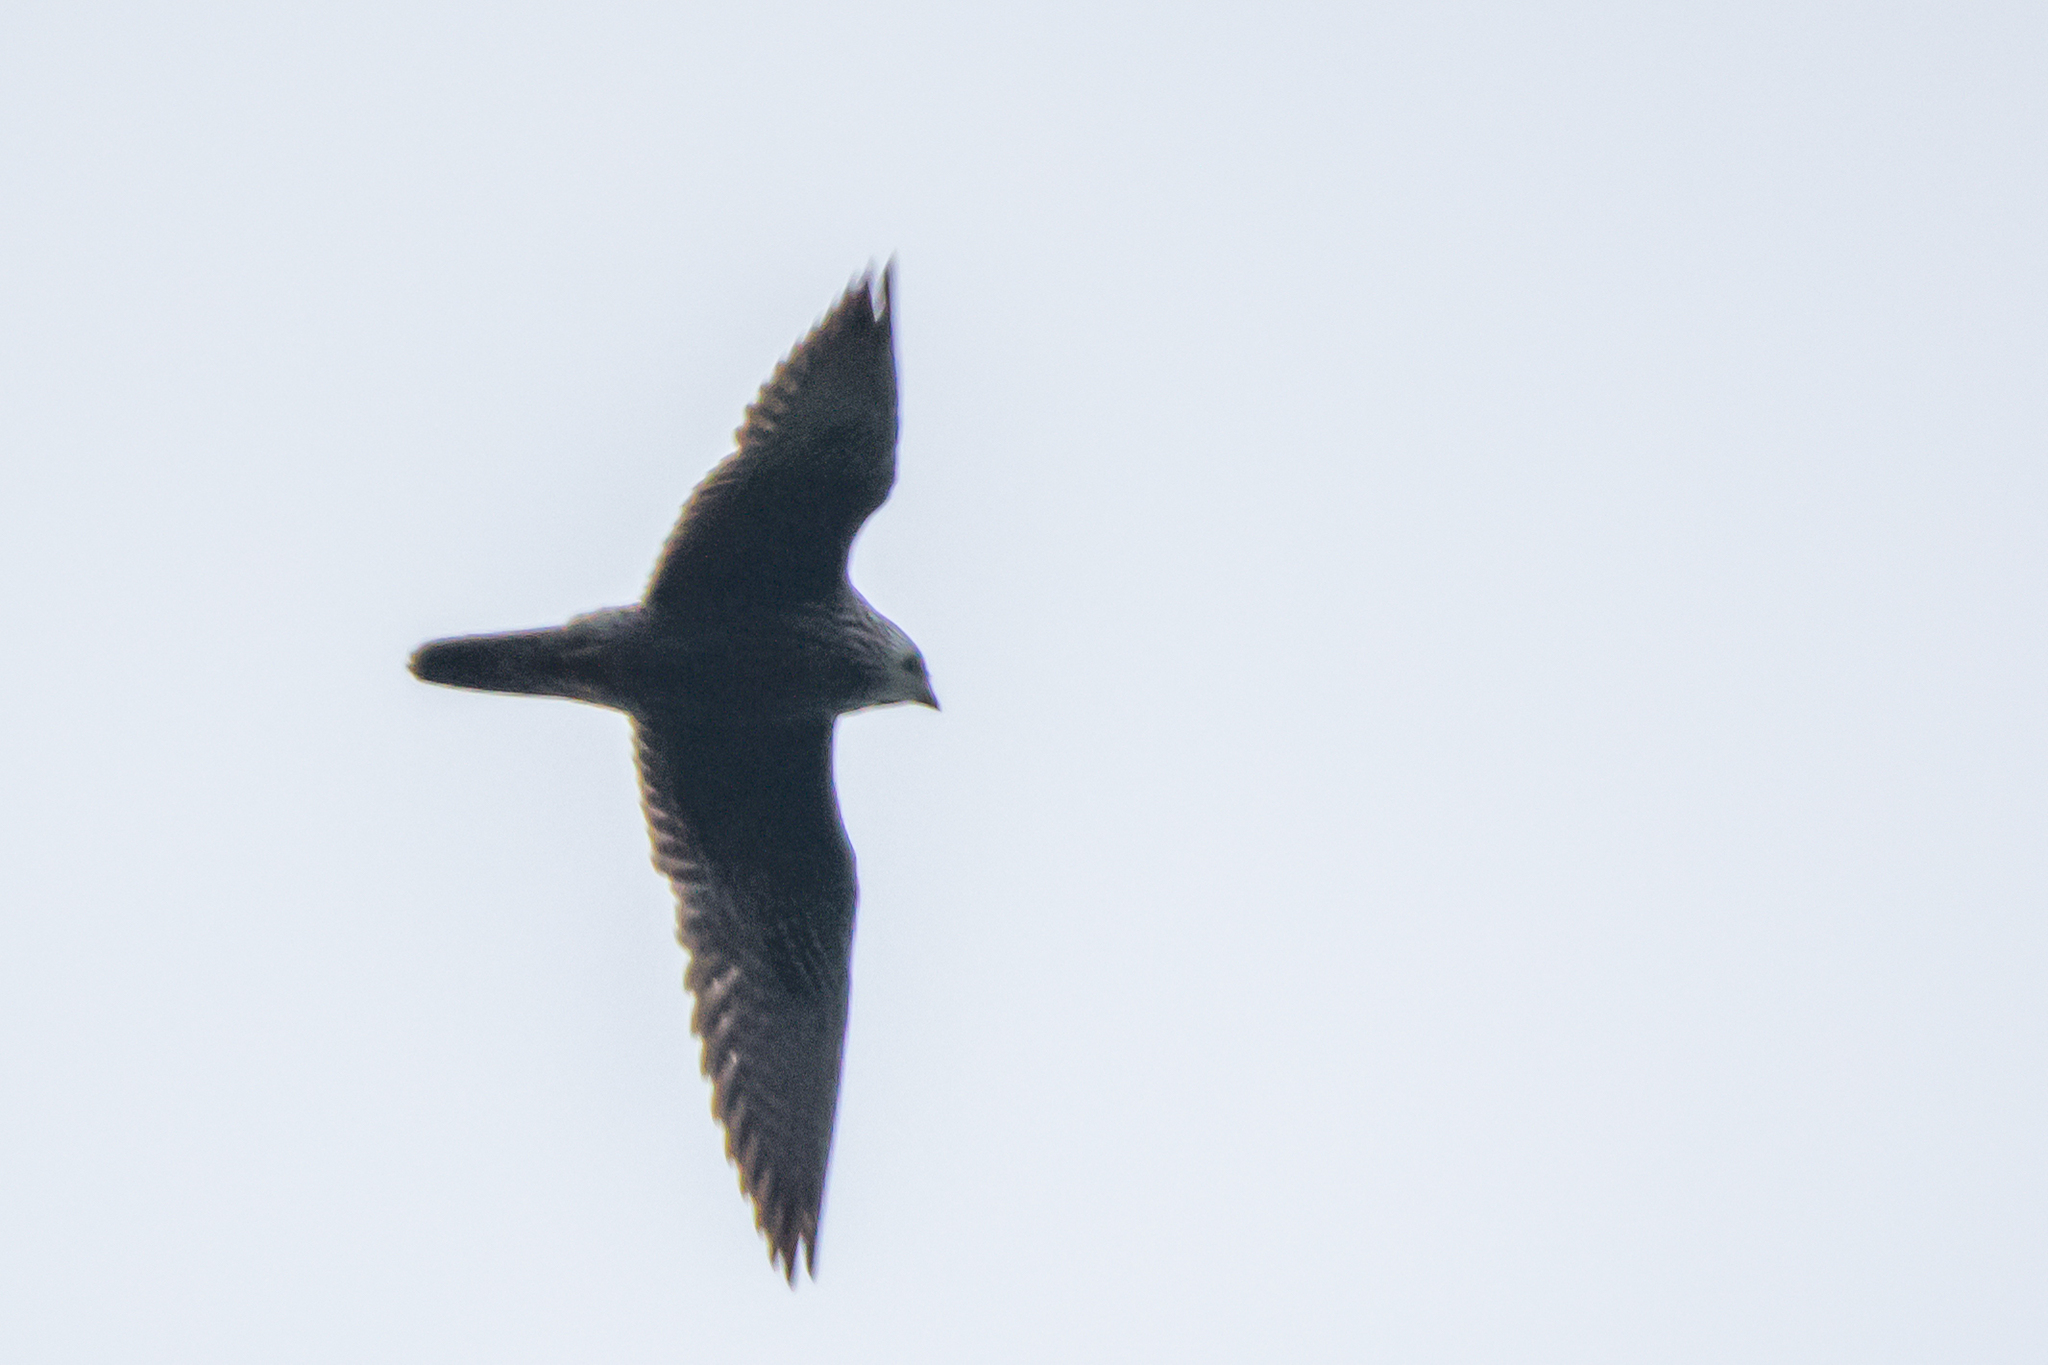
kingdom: Animalia
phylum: Chordata
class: Aves
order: Falconiformes
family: Falconidae
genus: Falco
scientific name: Falco peregrinus
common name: Peregrine falcon
